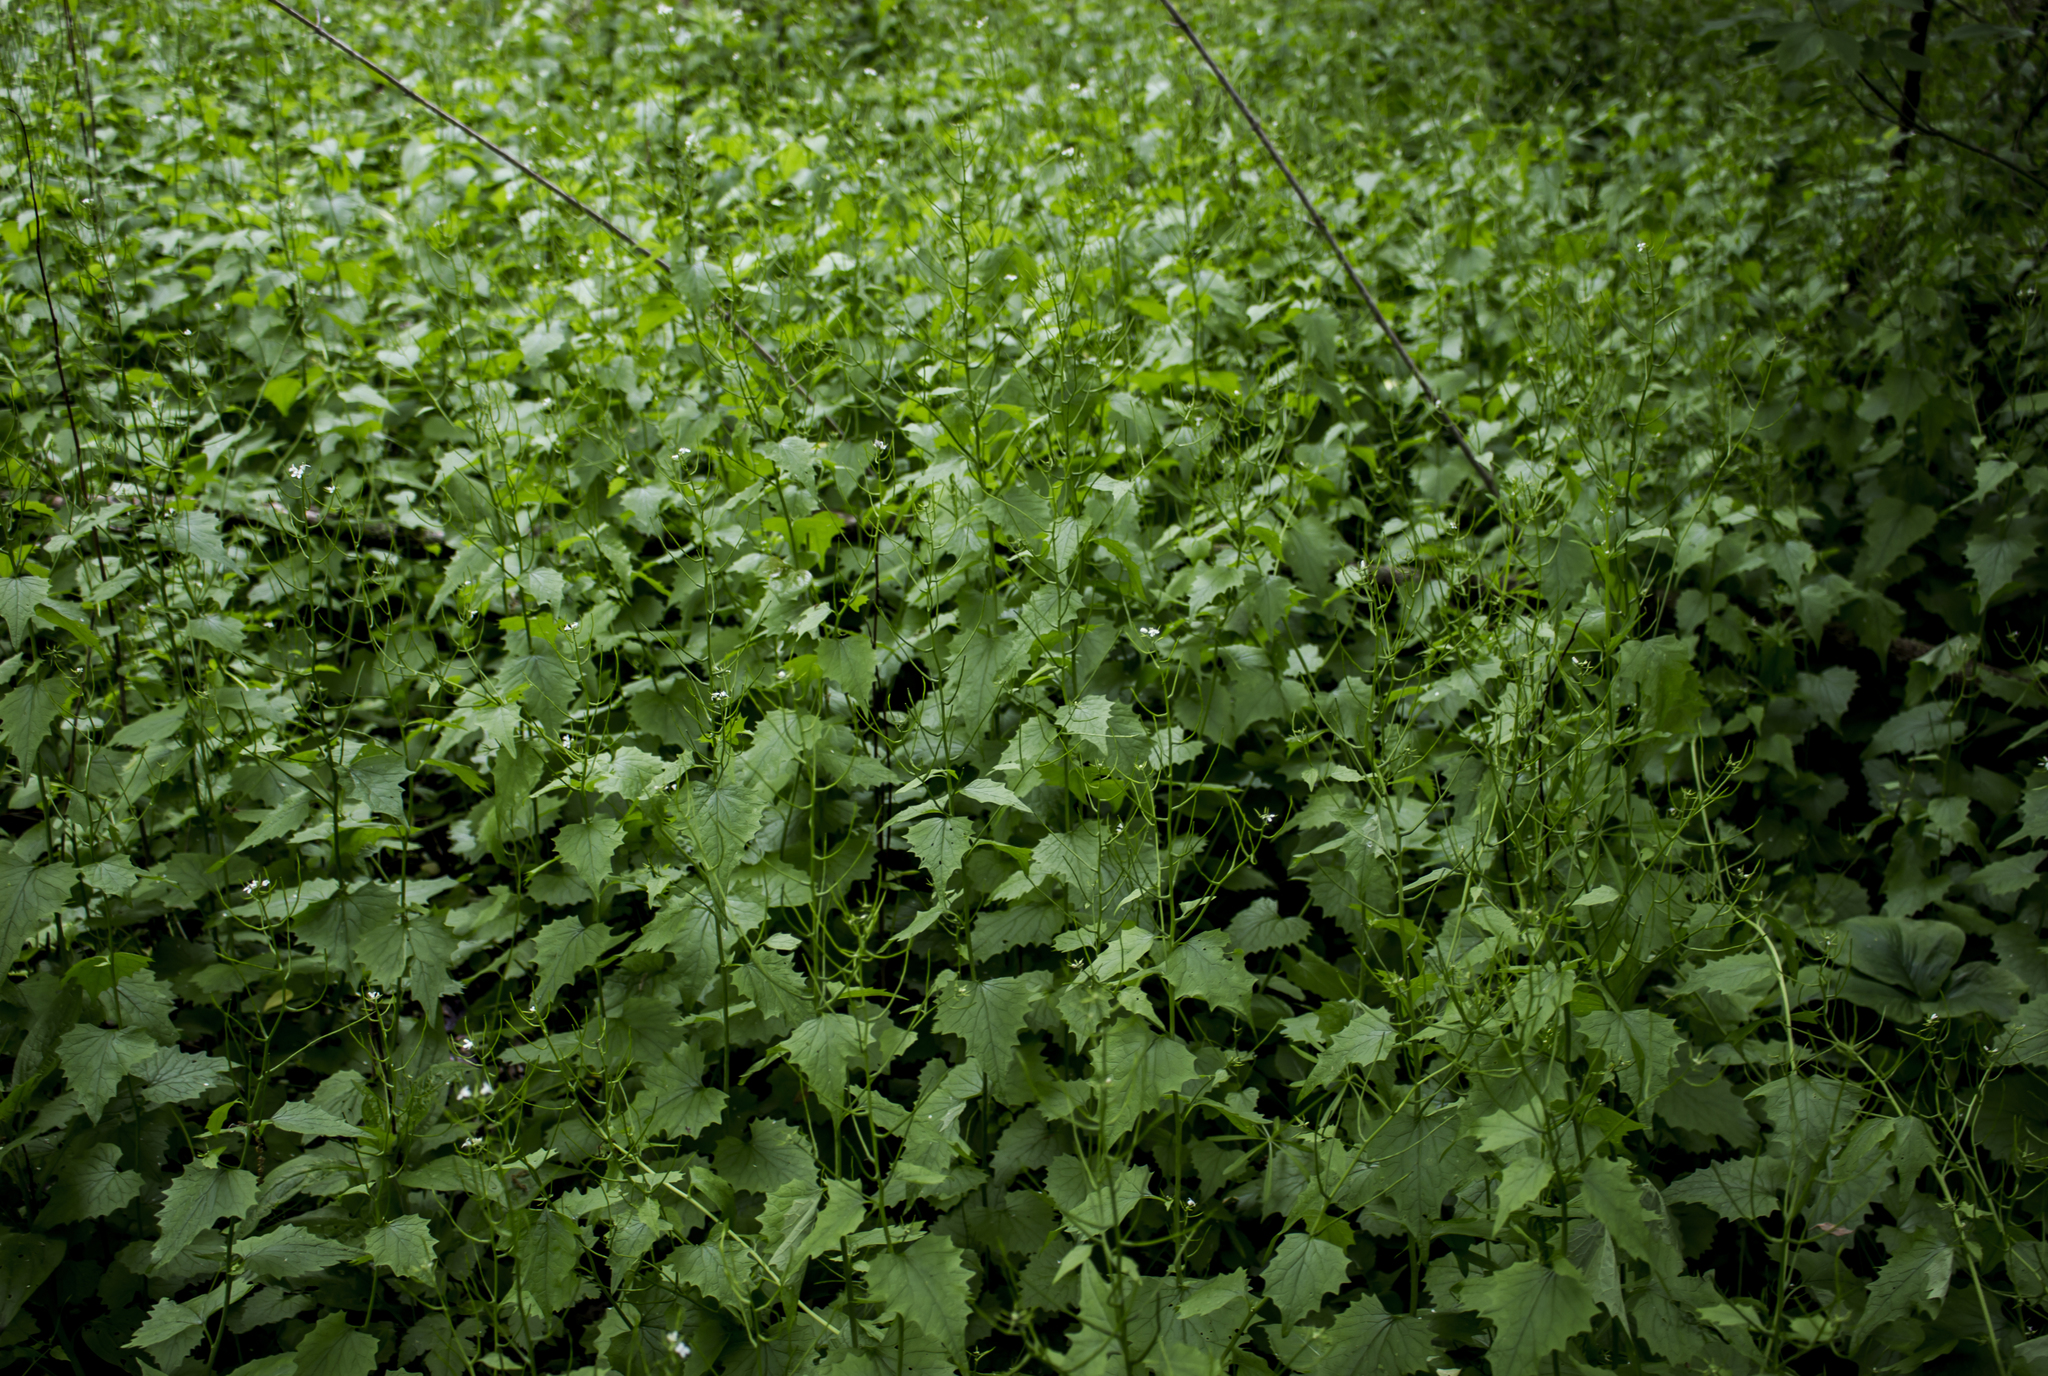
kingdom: Plantae
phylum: Tracheophyta
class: Magnoliopsida
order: Brassicales
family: Brassicaceae
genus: Alliaria
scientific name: Alliaria petiolata
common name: Garlic mustard
